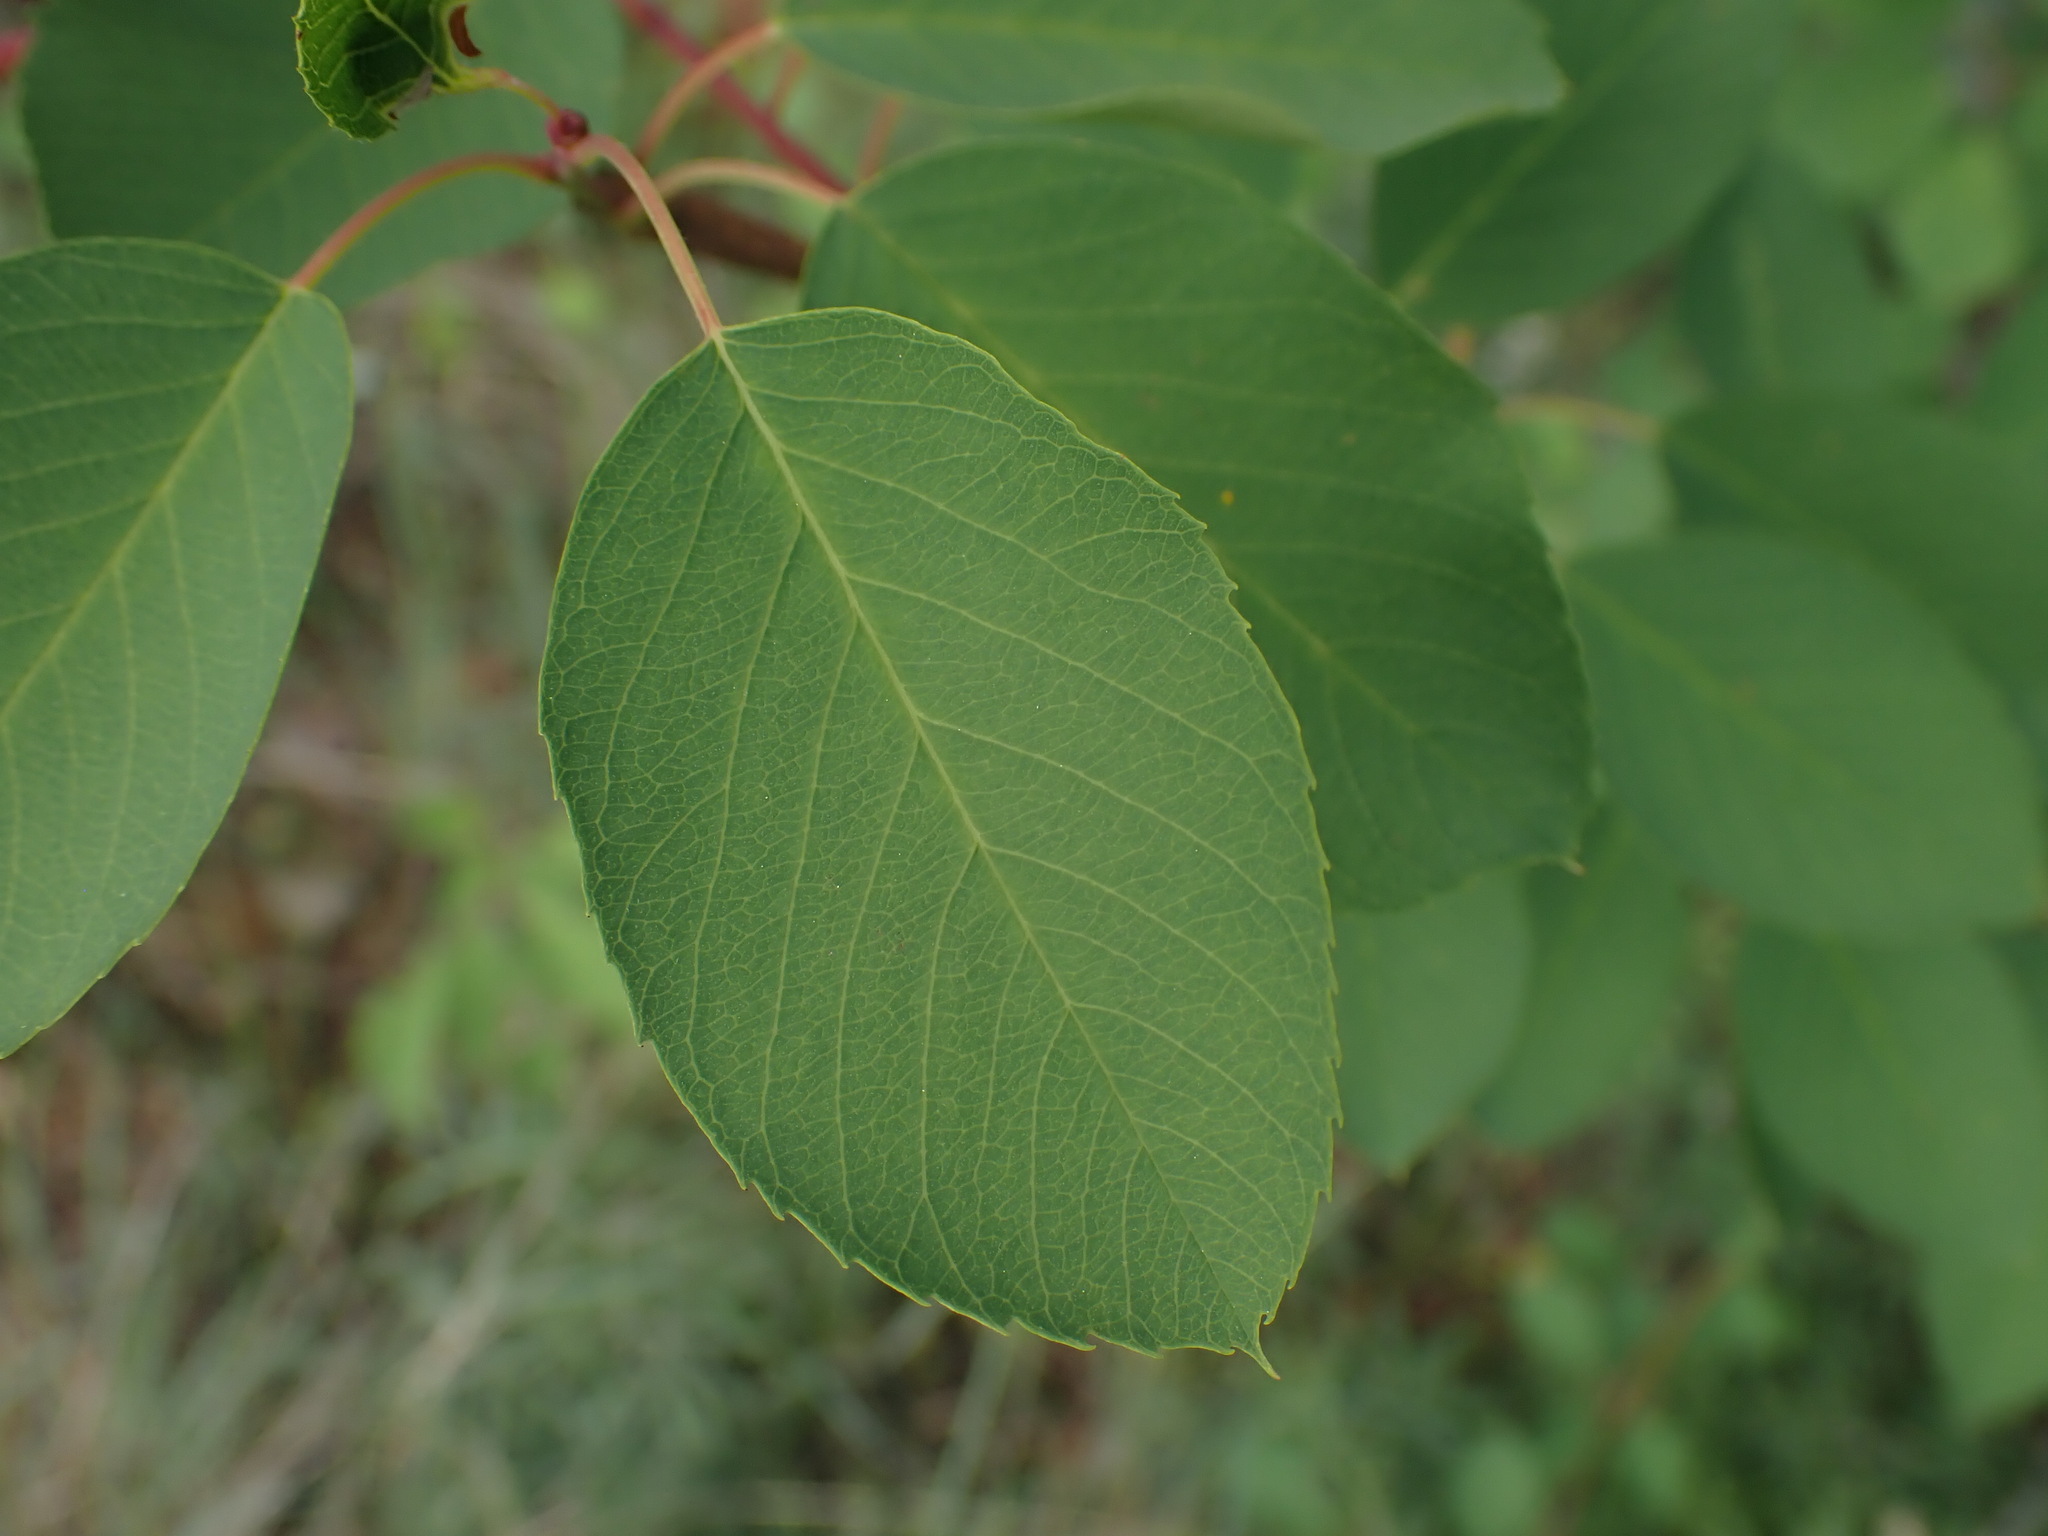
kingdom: Plantae
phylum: Tracheophyta
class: Magnoliopsida
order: Rosales
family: Rosaceae
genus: Amelanchier
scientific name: Amelanchier alnifolia
